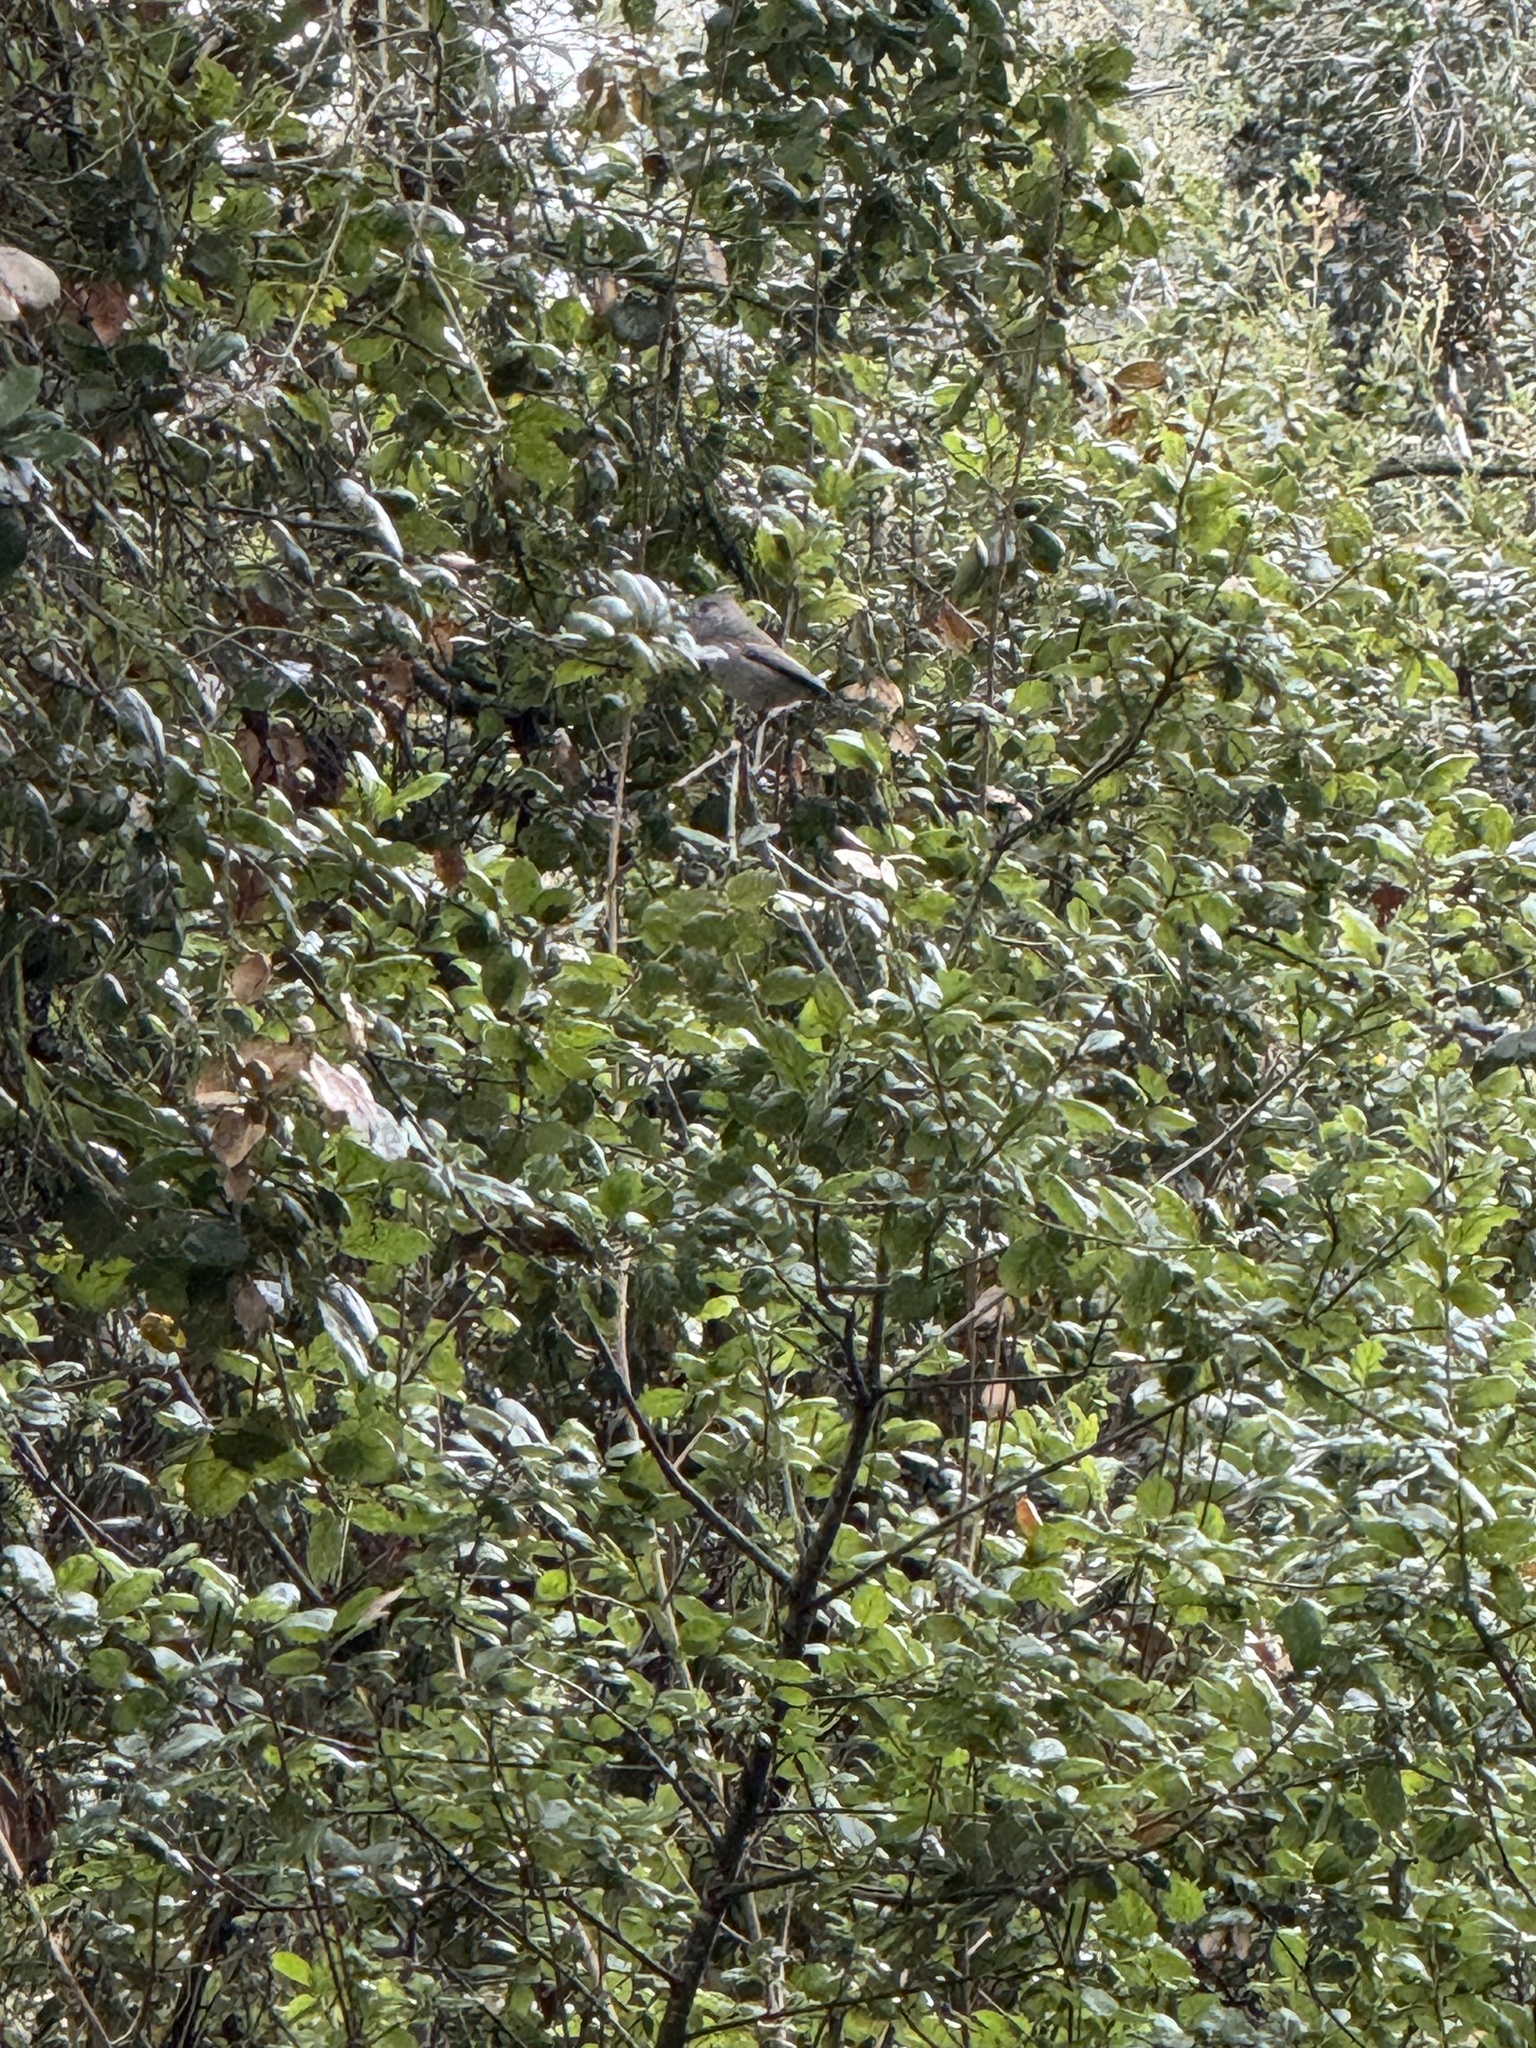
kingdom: Animalia
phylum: Chordata
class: Aves
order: Passeriformes
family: Paridae
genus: Baeolophus
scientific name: Baeolophus inornatus
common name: Oak titmouse
